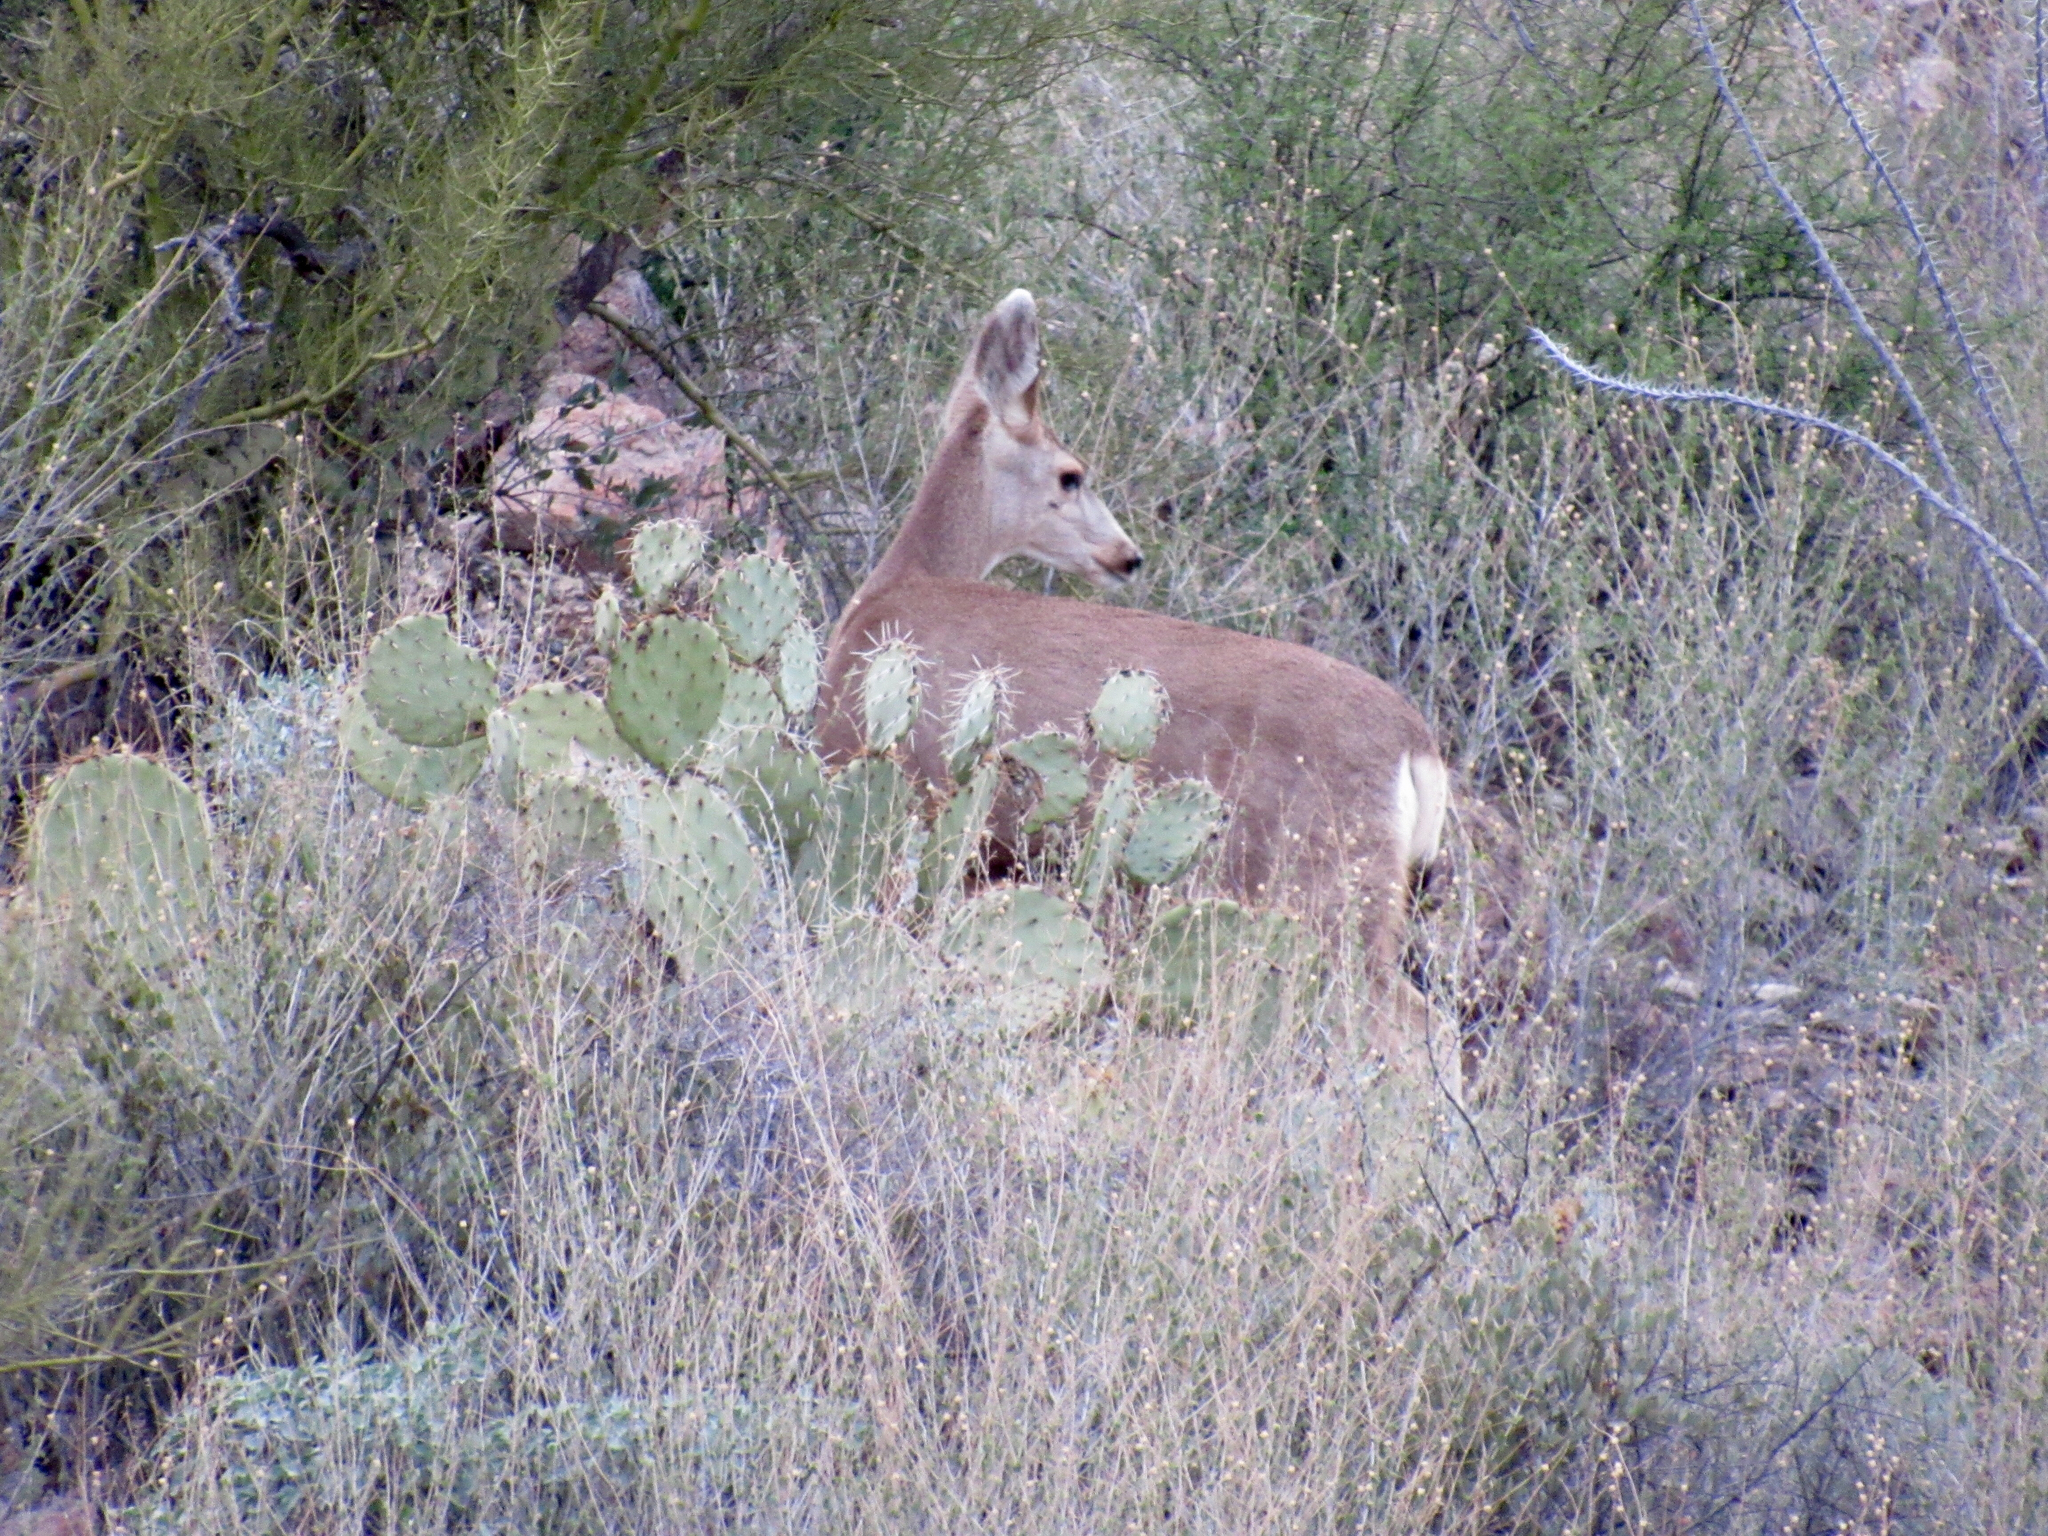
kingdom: Animalia
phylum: Chordata
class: Mammalia
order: Artiodactyla
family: Cervidae
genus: Odocoileus
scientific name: Odocoileus hemionus
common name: Mule deer
